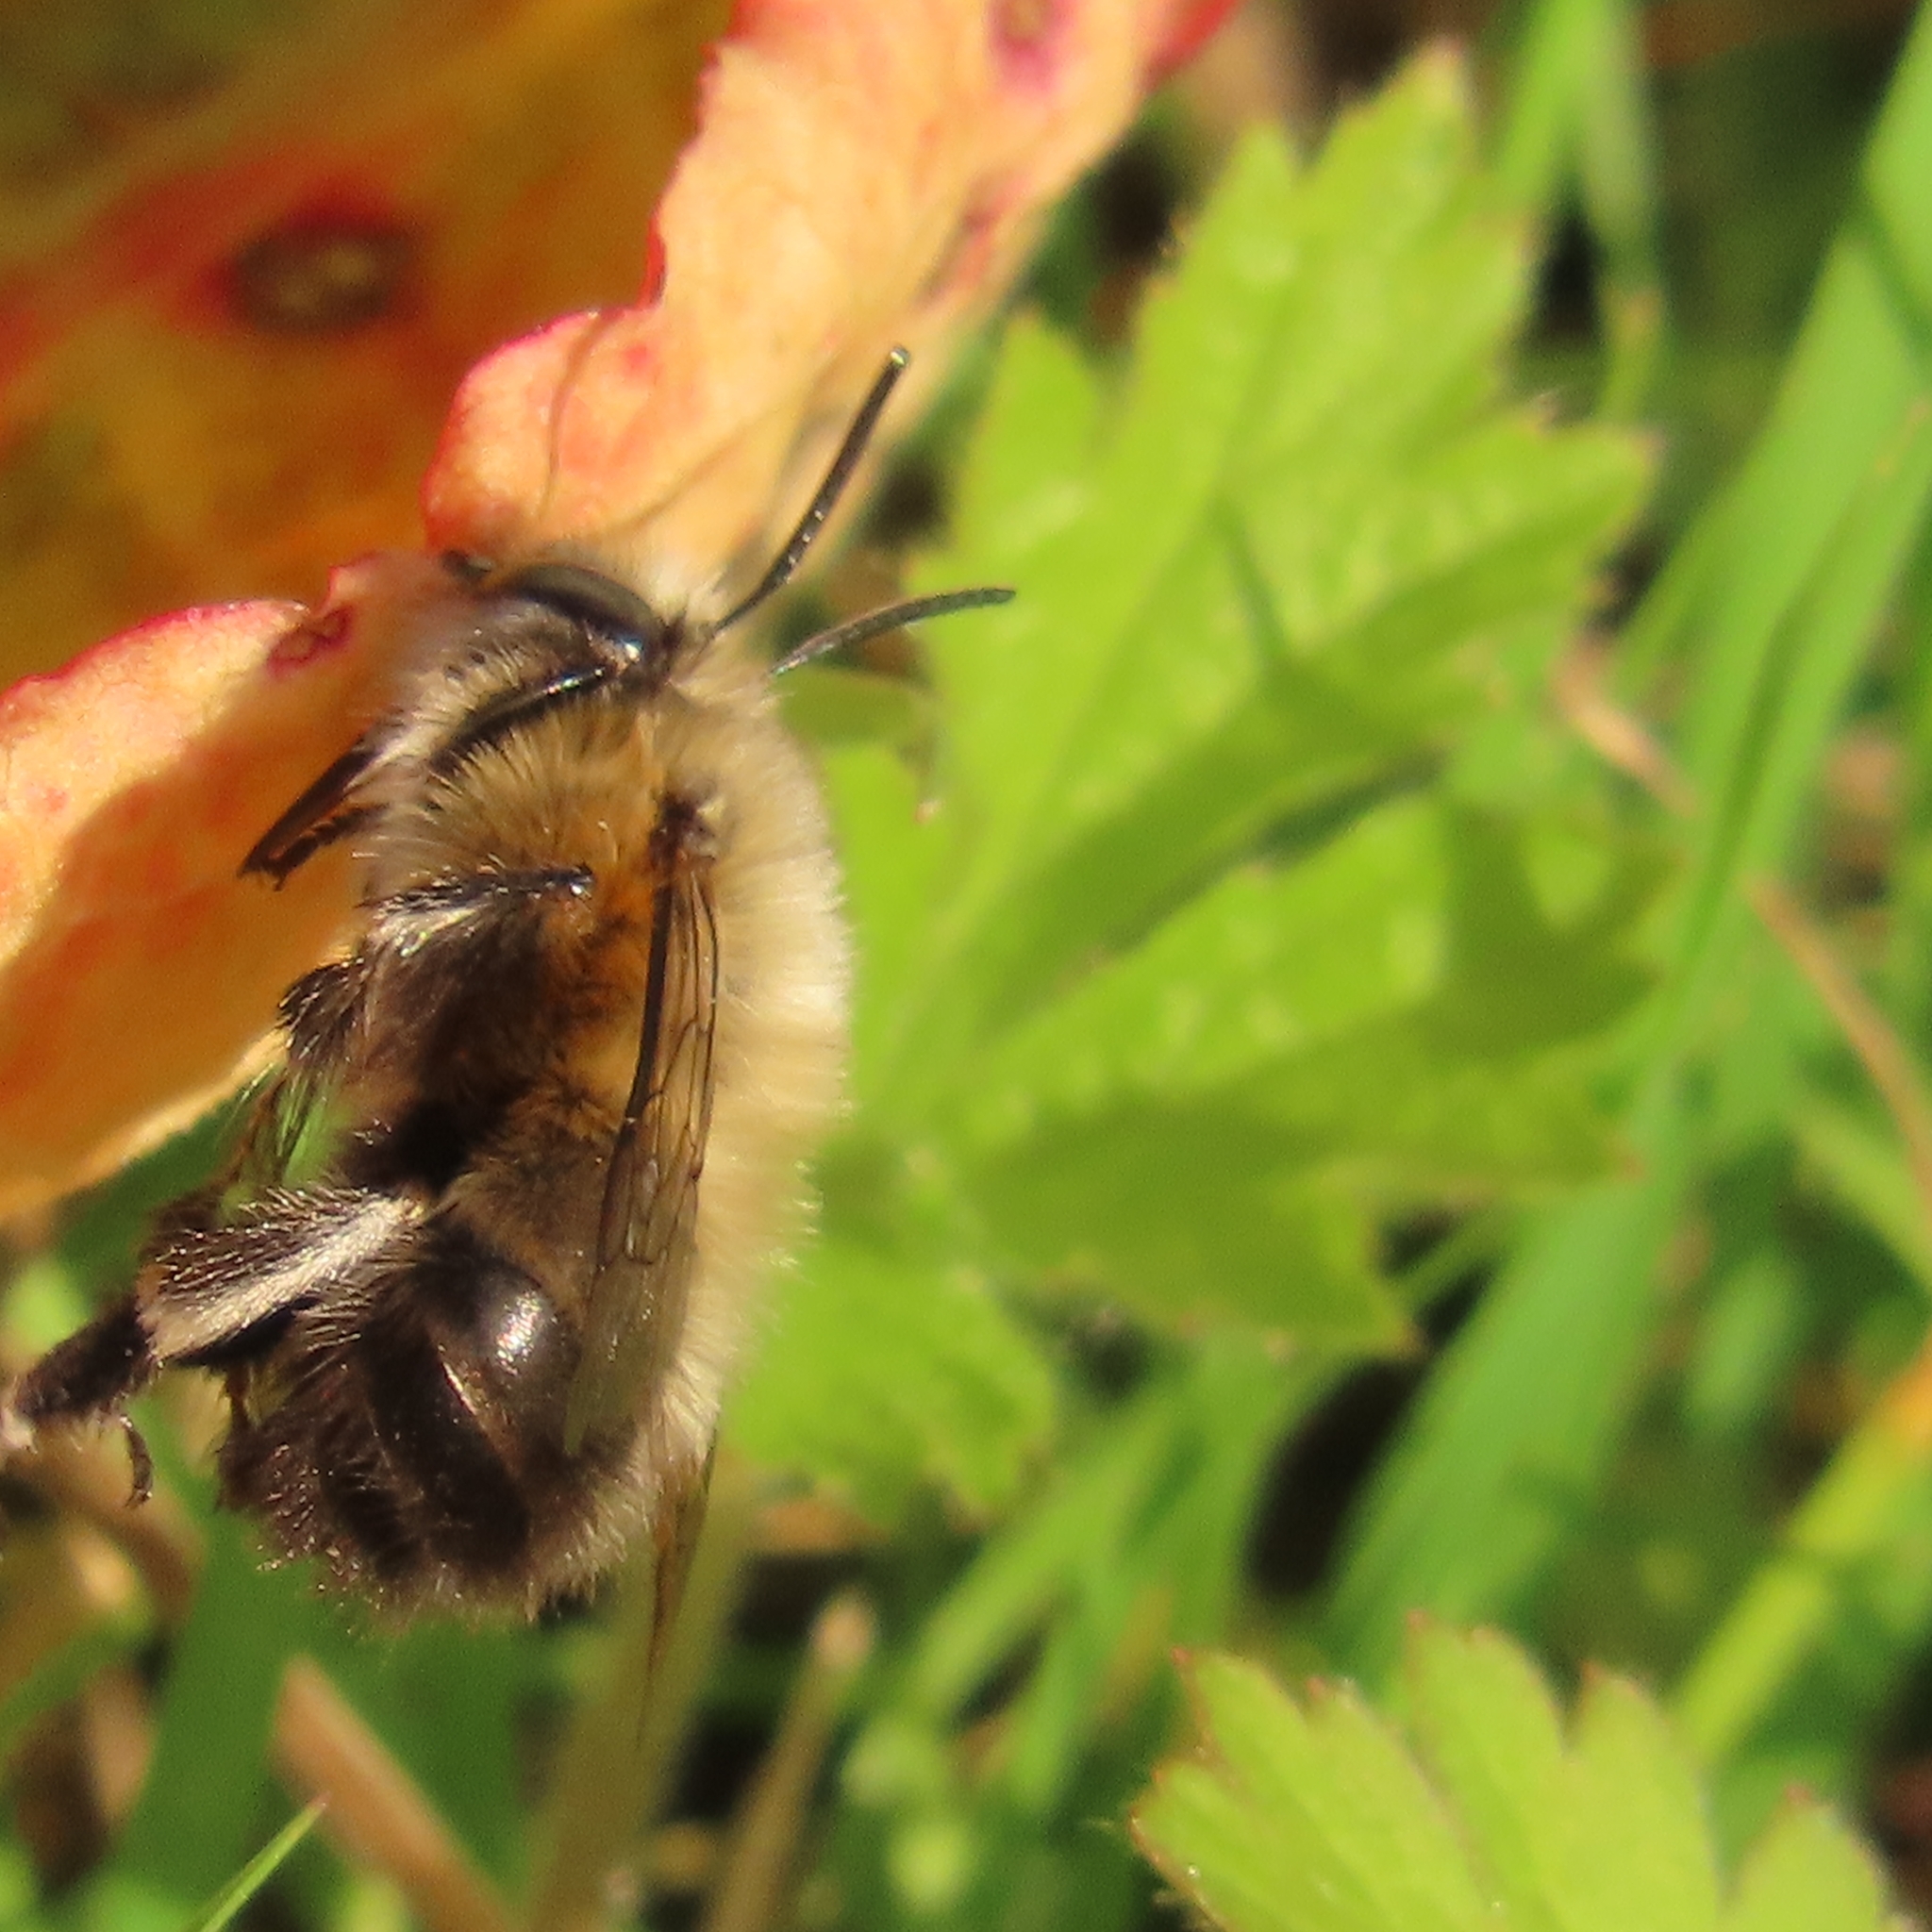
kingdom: Animalia
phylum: Arthropoda
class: Insecta
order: Hymenoptera
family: Apidae
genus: Anthophora
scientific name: Anthophora plumipes
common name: Hairy-footed flower bee
